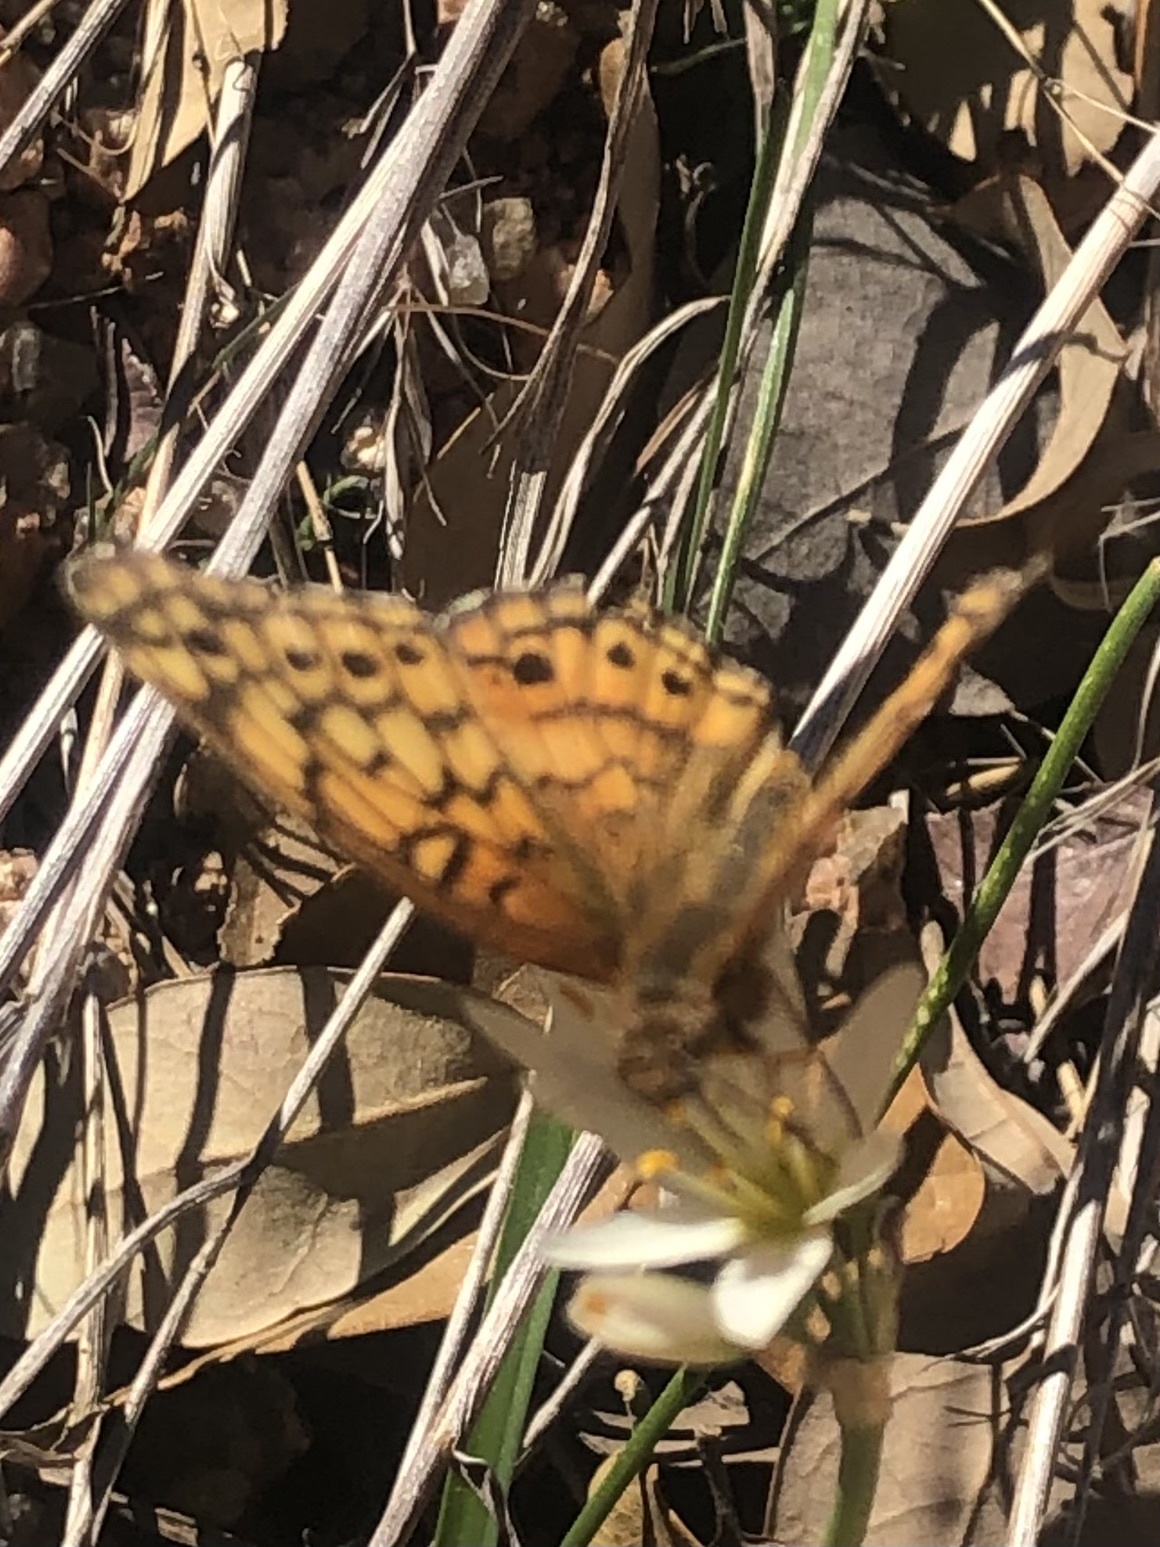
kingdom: Animalia
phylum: Arthropoda
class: Insecta
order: Lepidoptera
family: Nymphalidae
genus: Euptoieta
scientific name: Euptoieta claudia
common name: Variegated fritillary
